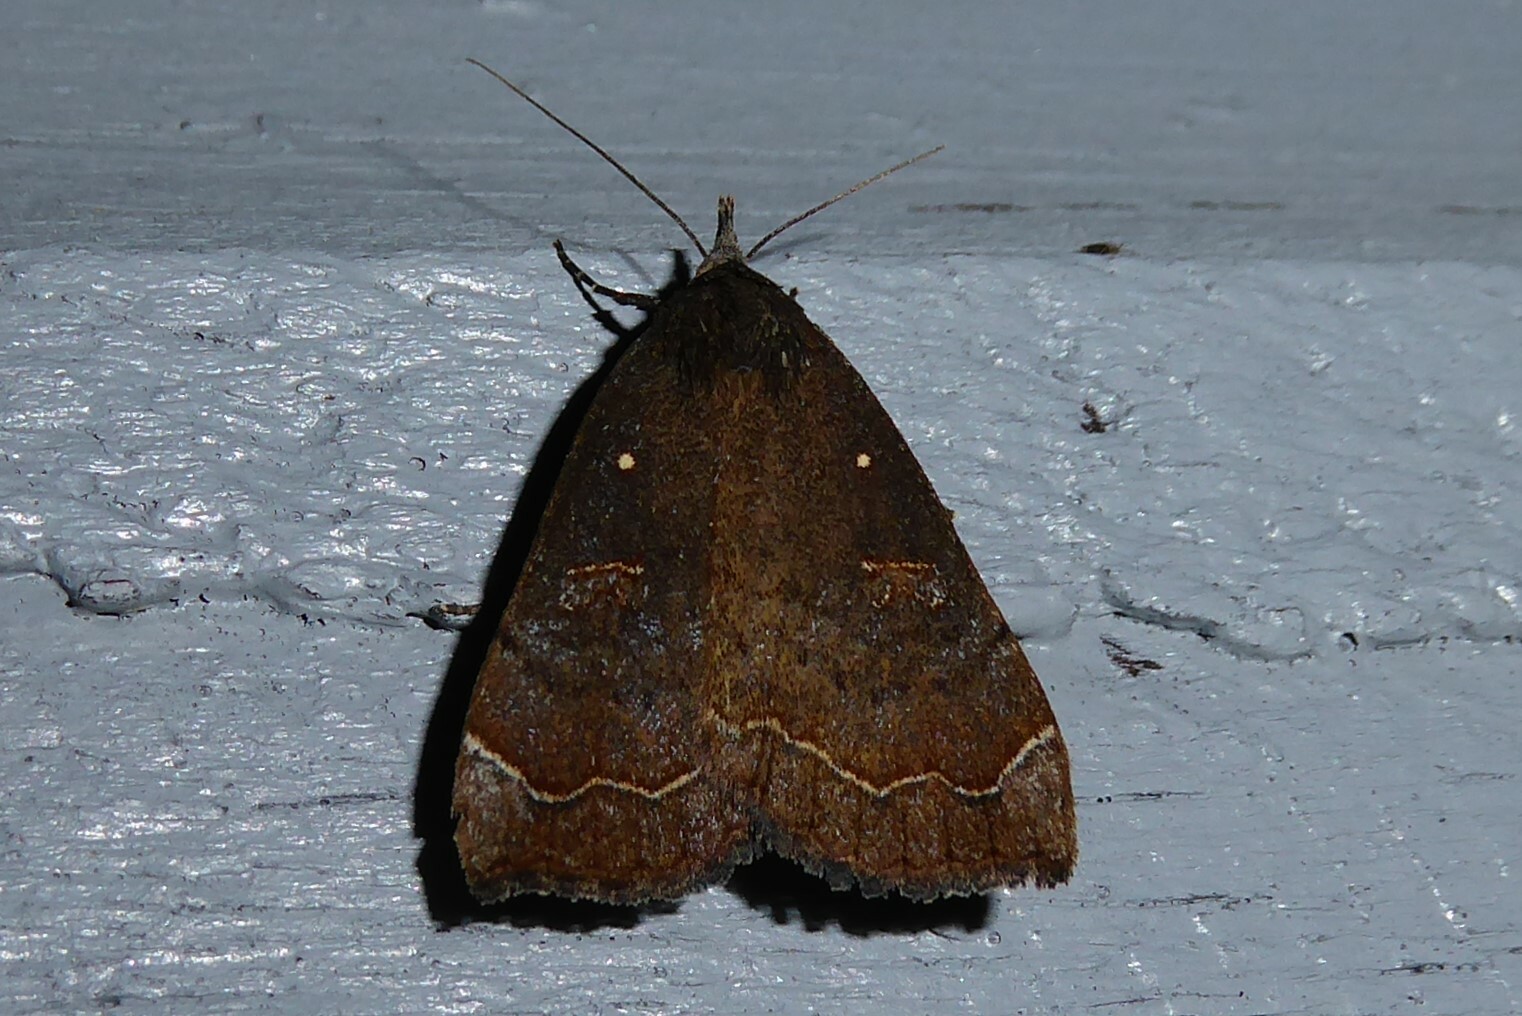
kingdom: Animalia
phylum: Arthropoda
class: Insecta
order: Lepidoptera
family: Erebidae
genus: Rhapsa
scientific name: Rhapsa scotosialis
